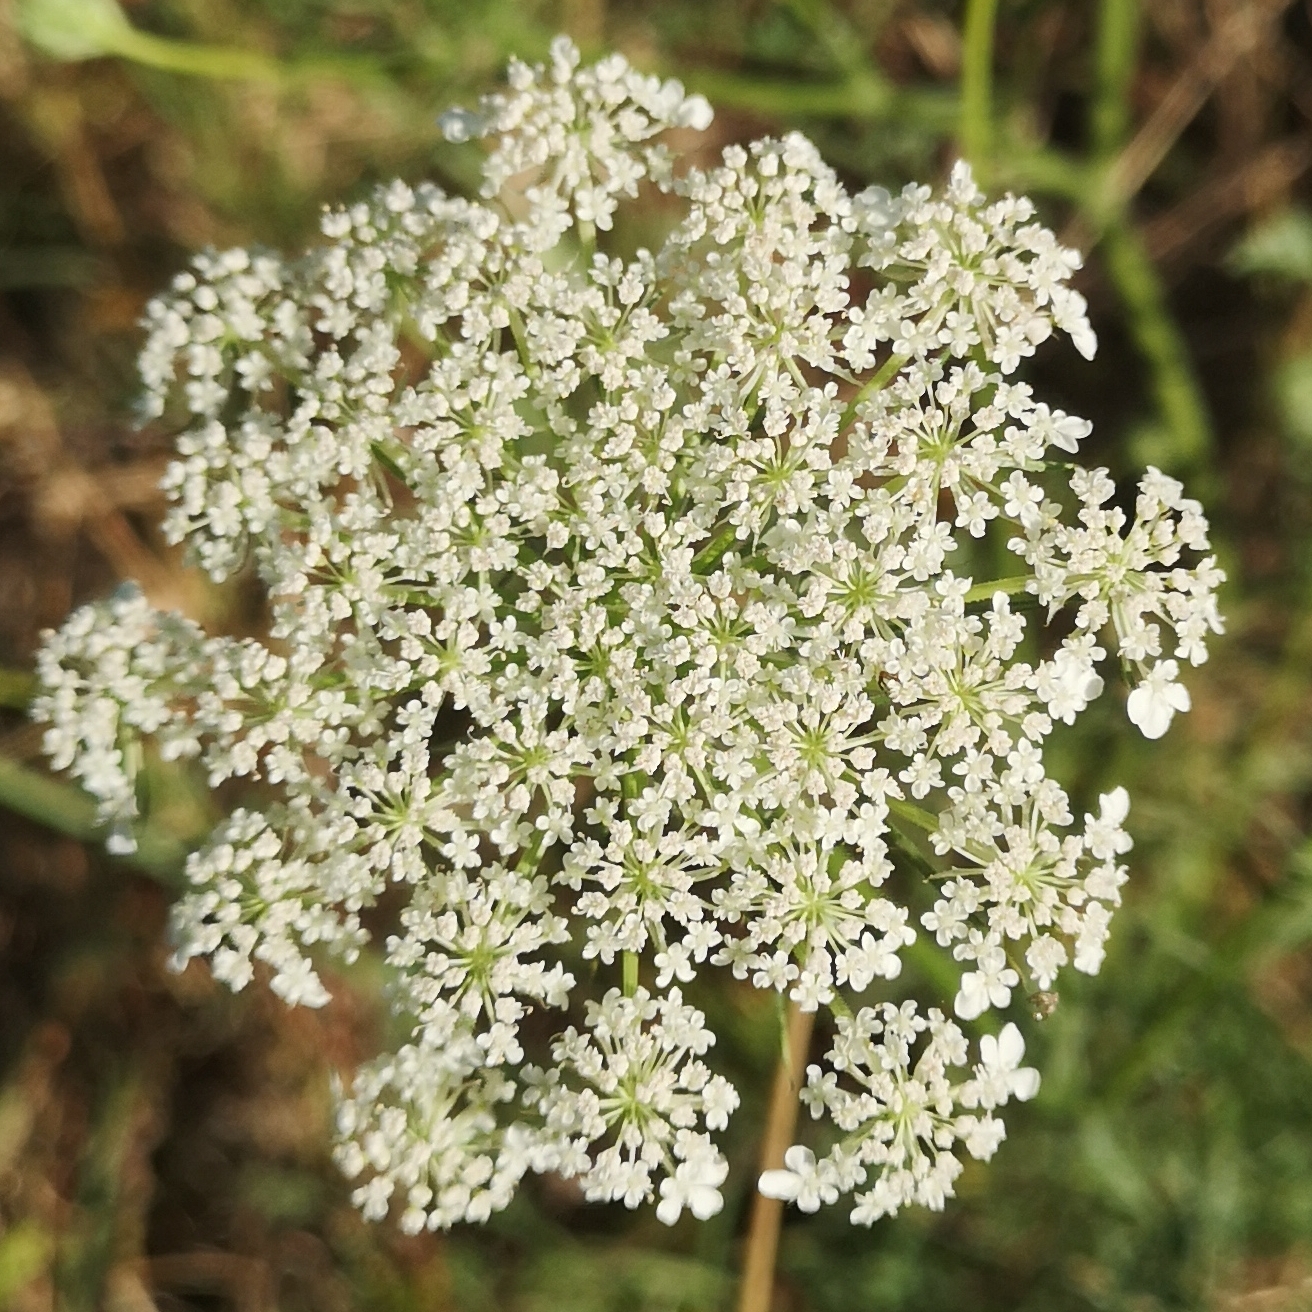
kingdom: Plantae
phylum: Tracheophyta
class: Magnoliopsida
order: Apiales
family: Apiaceae
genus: Daucus
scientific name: Daucus carota
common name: Wild carrot
